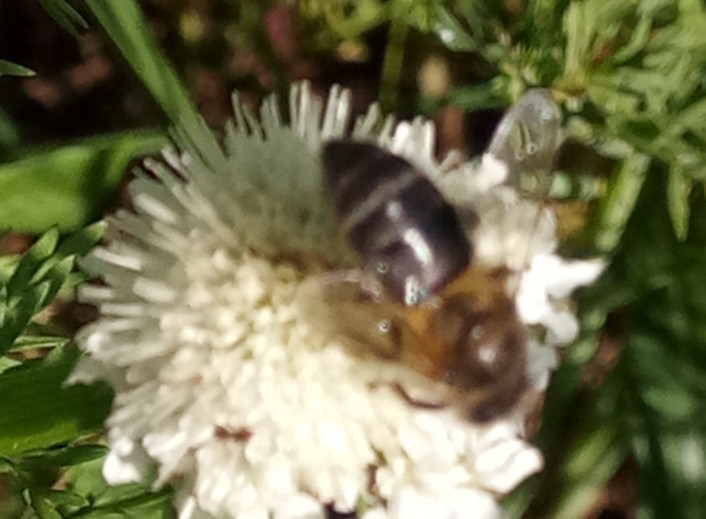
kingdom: Animalia
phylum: Arthropoda
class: Insecta
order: Hymenoptera
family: Apidae
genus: Apis
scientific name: Apis mellifera
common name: Honey bee
